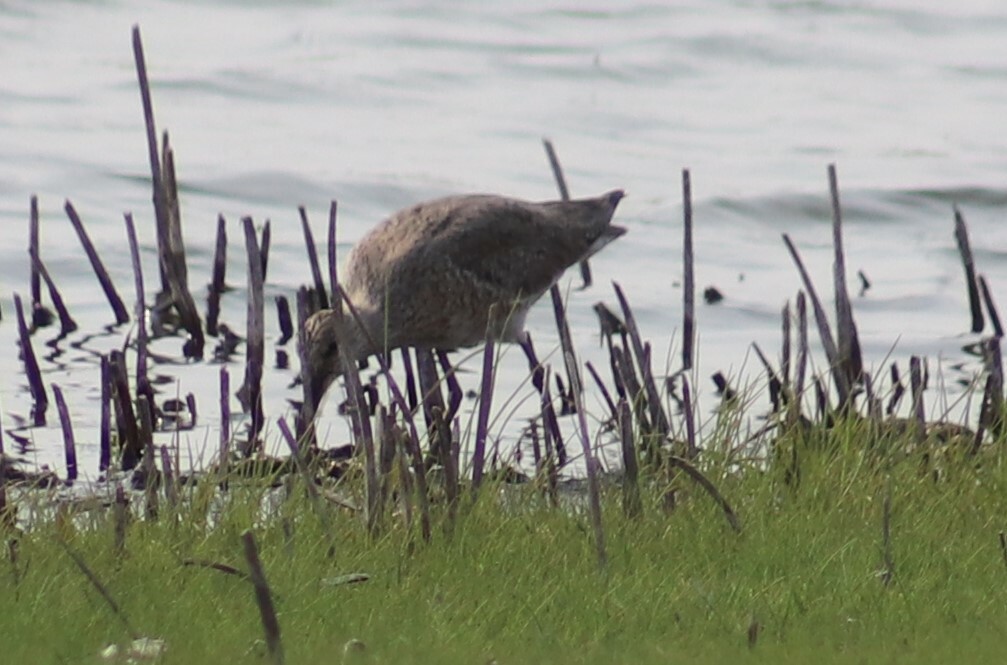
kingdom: Animalia
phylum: Chordata
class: Aves
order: Charadriiformes
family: Scolopacidae
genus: Tringa
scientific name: Tringa semipalmata
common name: Willet
